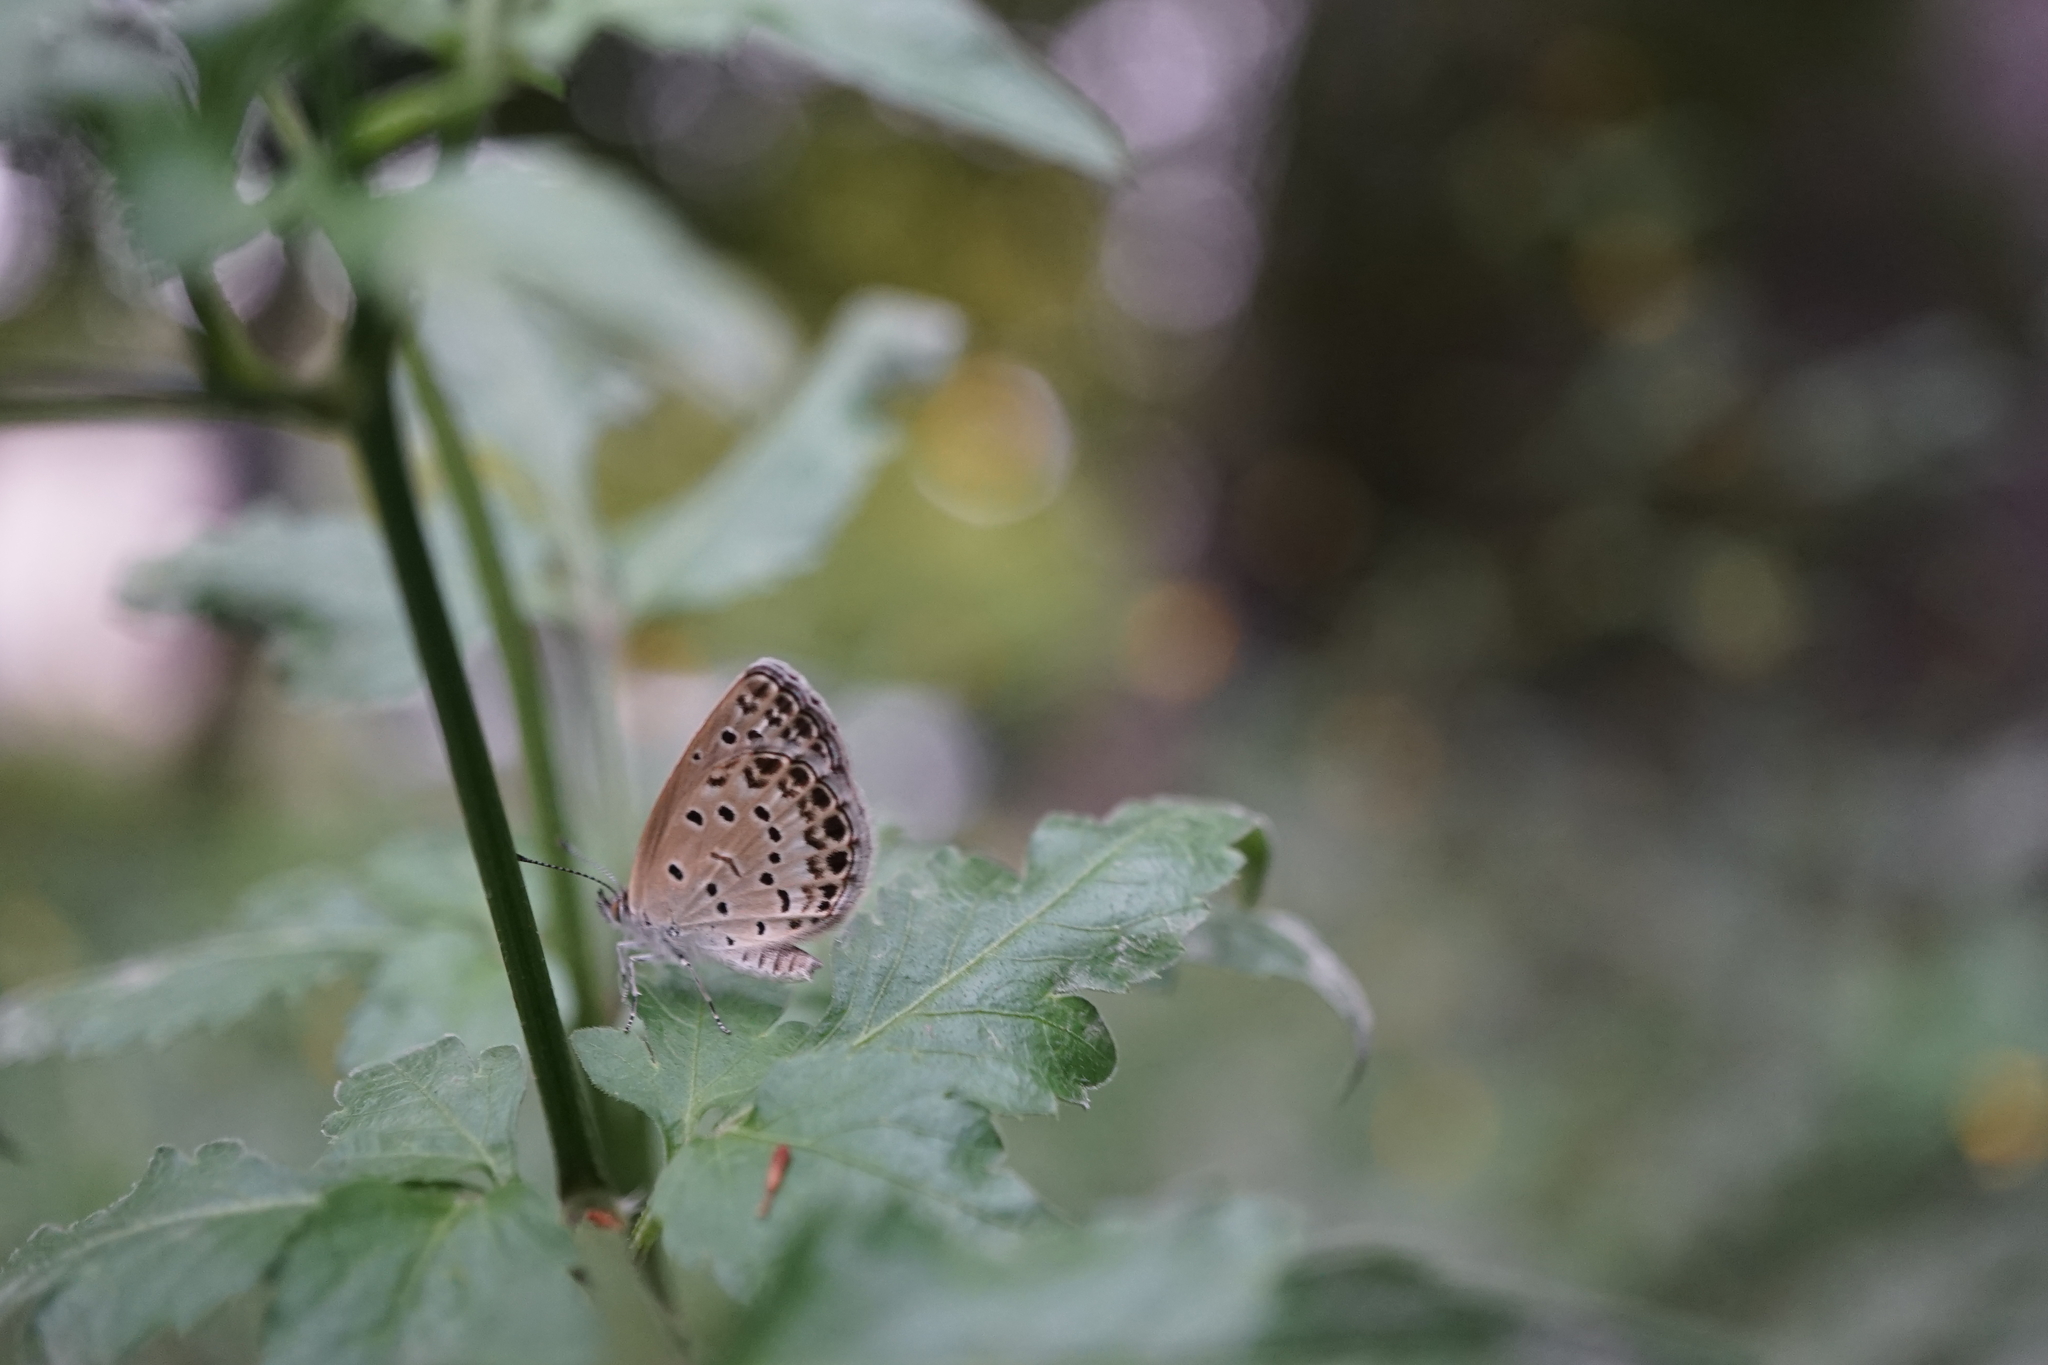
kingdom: Animalia
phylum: Arthropoda
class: Insecta
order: Lepidoptera
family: Lycaenidae
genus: Pseudozizeeria
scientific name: Pseudozizeeria maha
